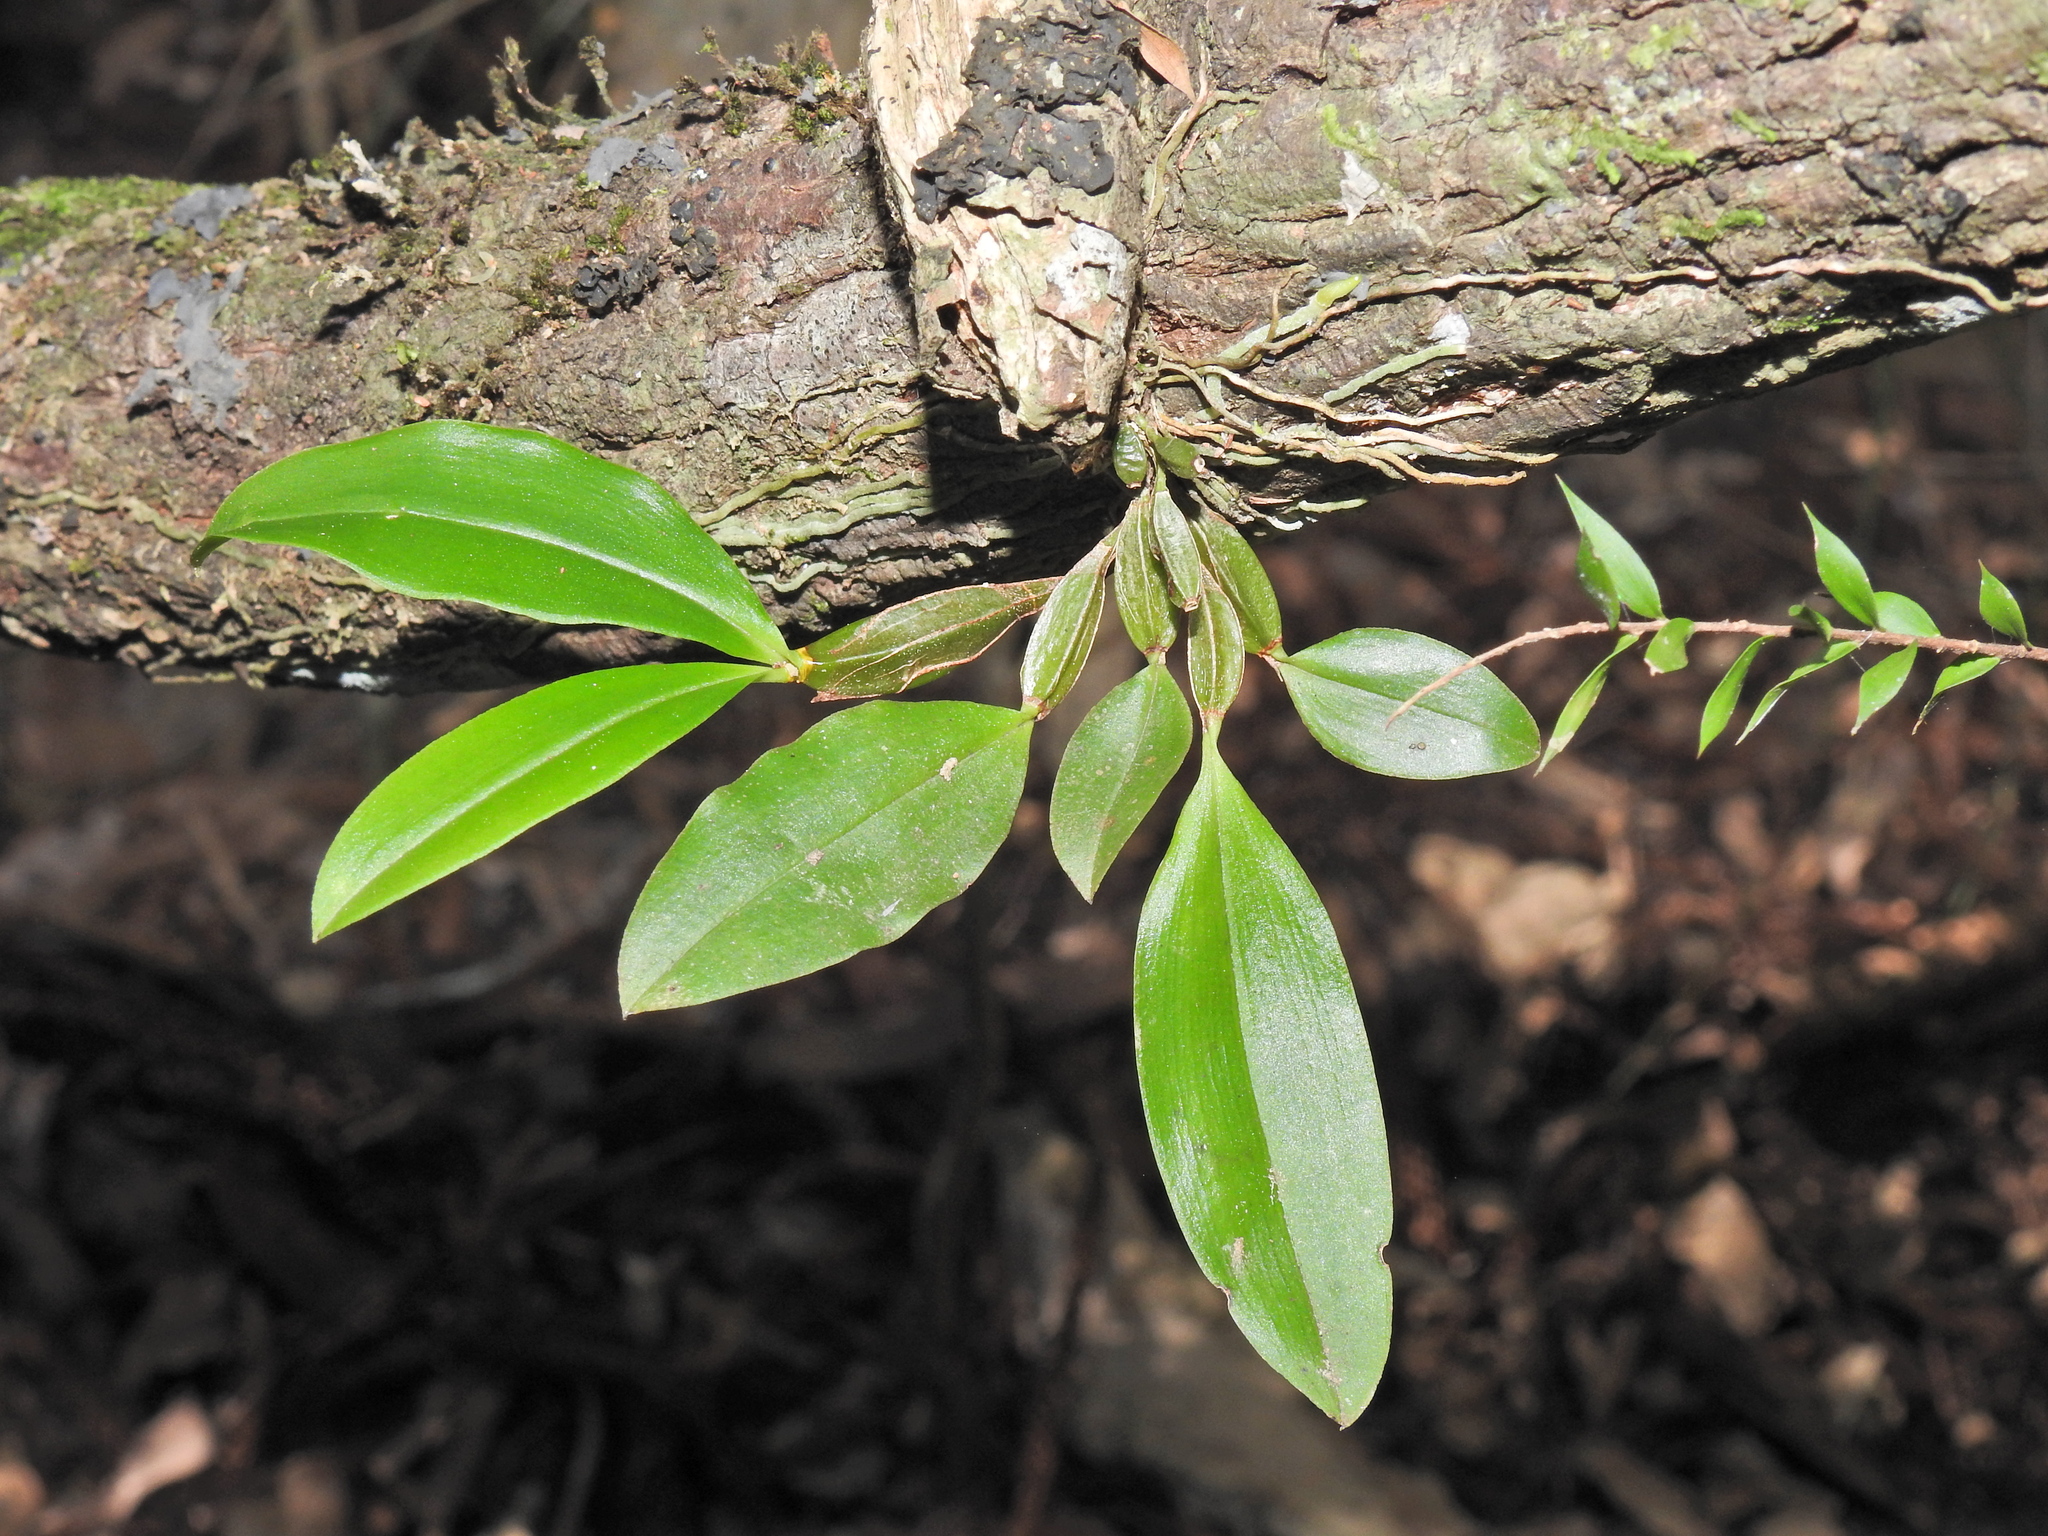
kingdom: Plantae
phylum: Tracheophyta
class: Liliopsida
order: Asparagales
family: Orchidaceae
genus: Dendrobium
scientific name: Dendrobium tetragonum
